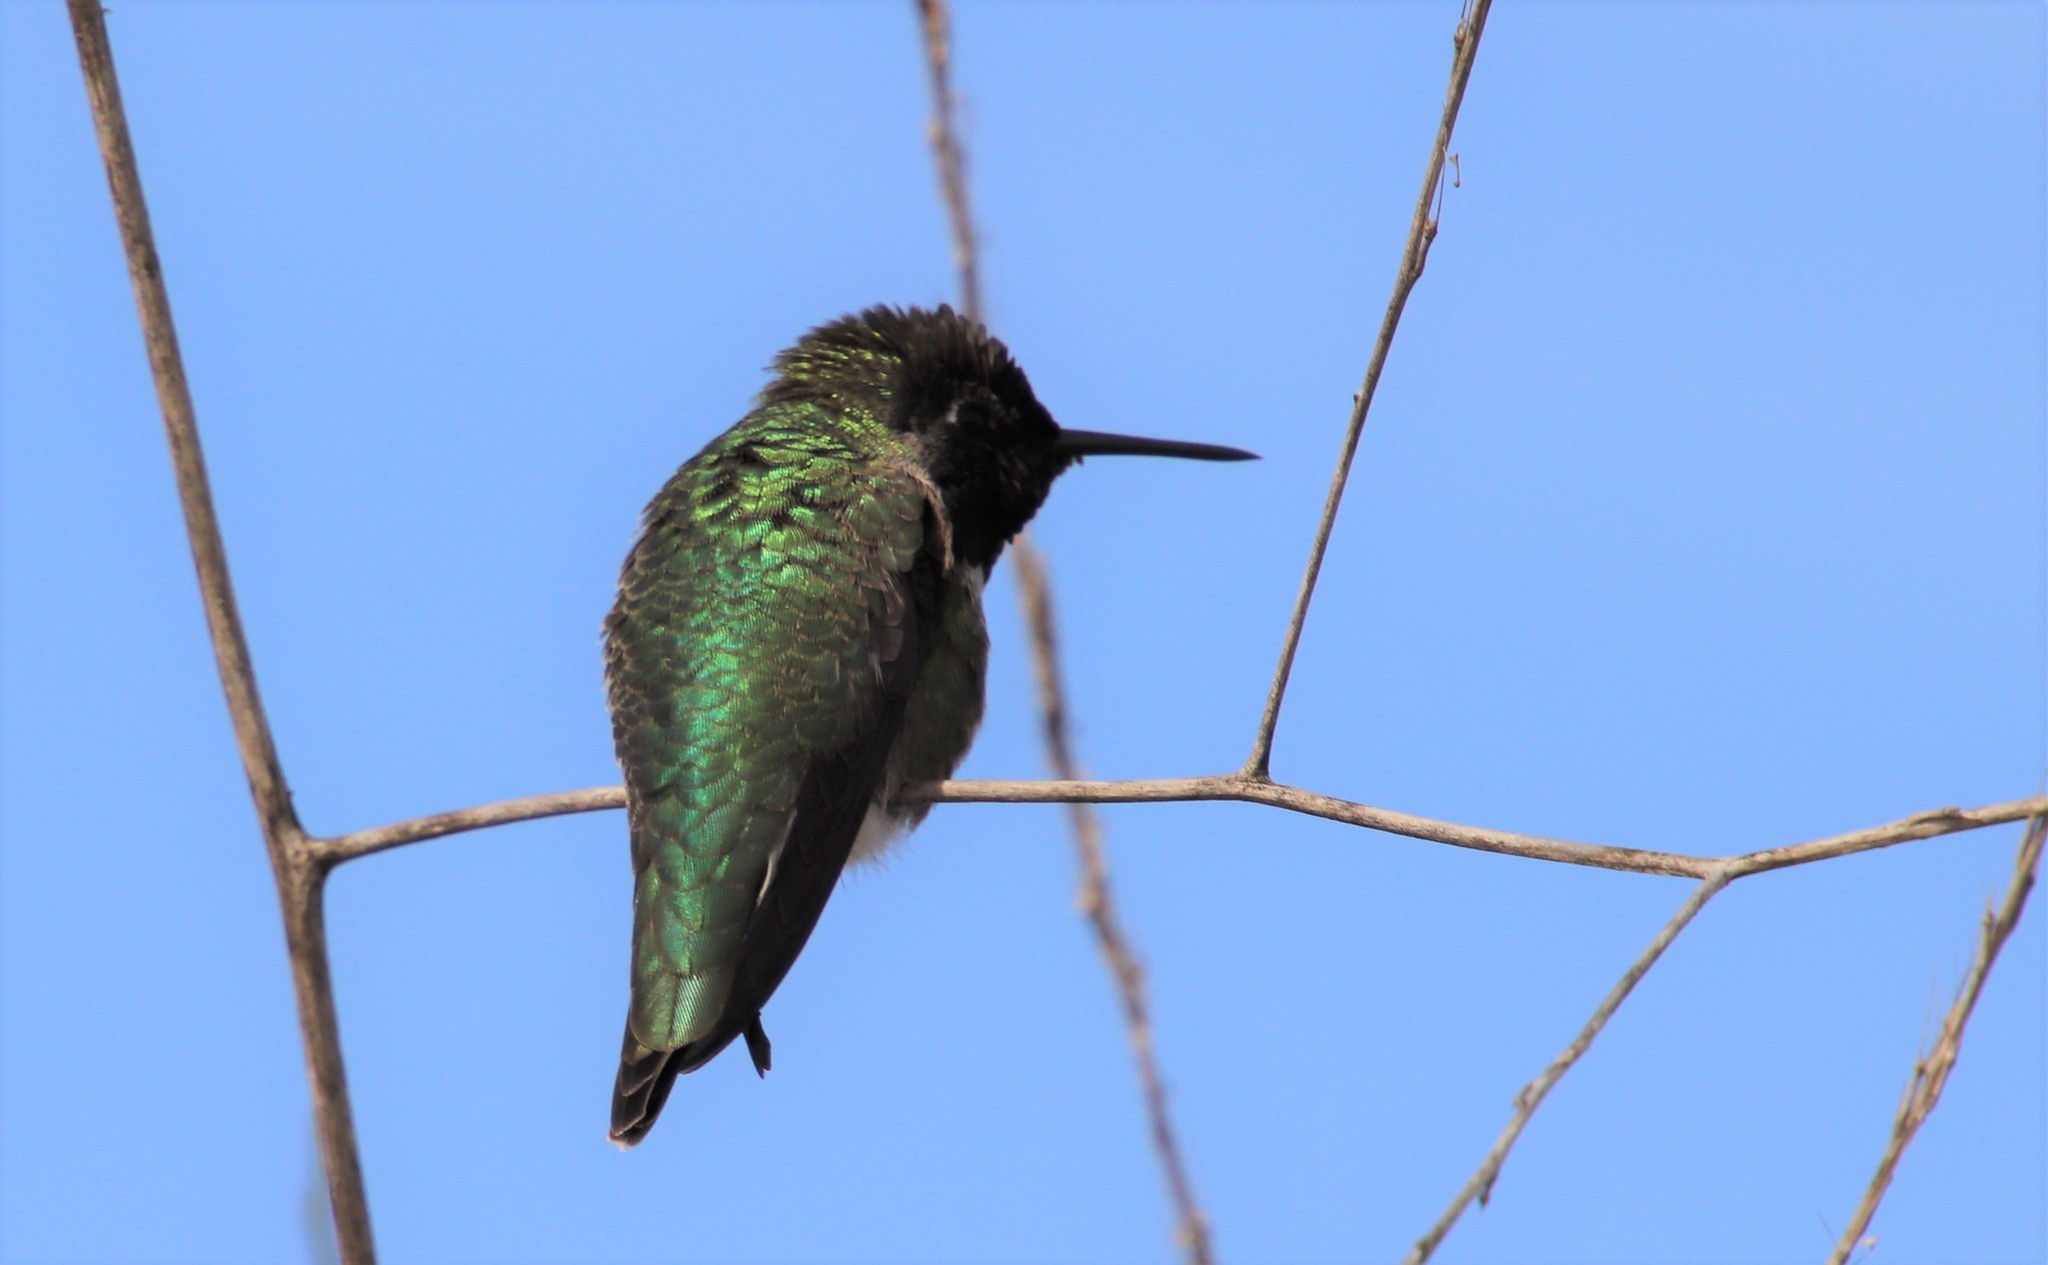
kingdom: Animalia
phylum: Chordata
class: Aves
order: Apodiformes
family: Trochilidae
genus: Calypte
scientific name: Calypte anna
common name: Anna's hummingbird
